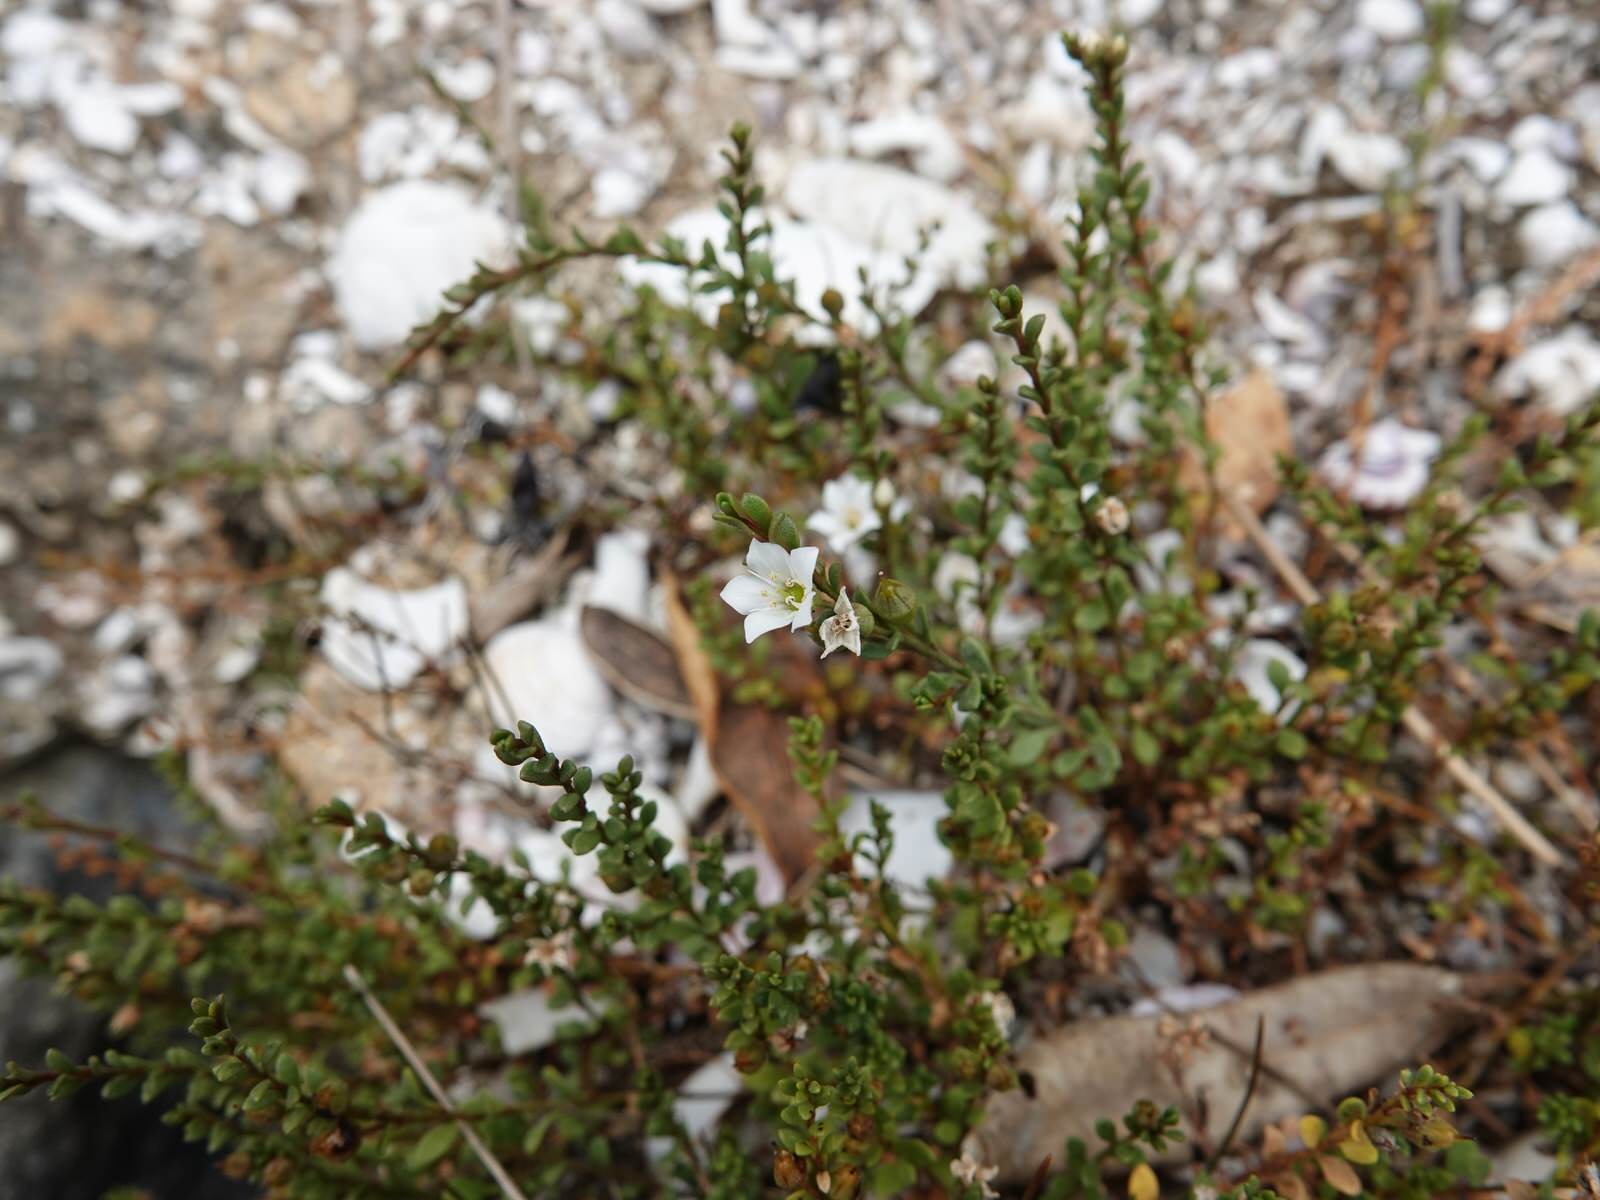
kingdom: Plantae
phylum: Tracheophyta
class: Magnoliopsida
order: Ericales
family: Primulaceae
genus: Samolus
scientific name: Samolus repens
